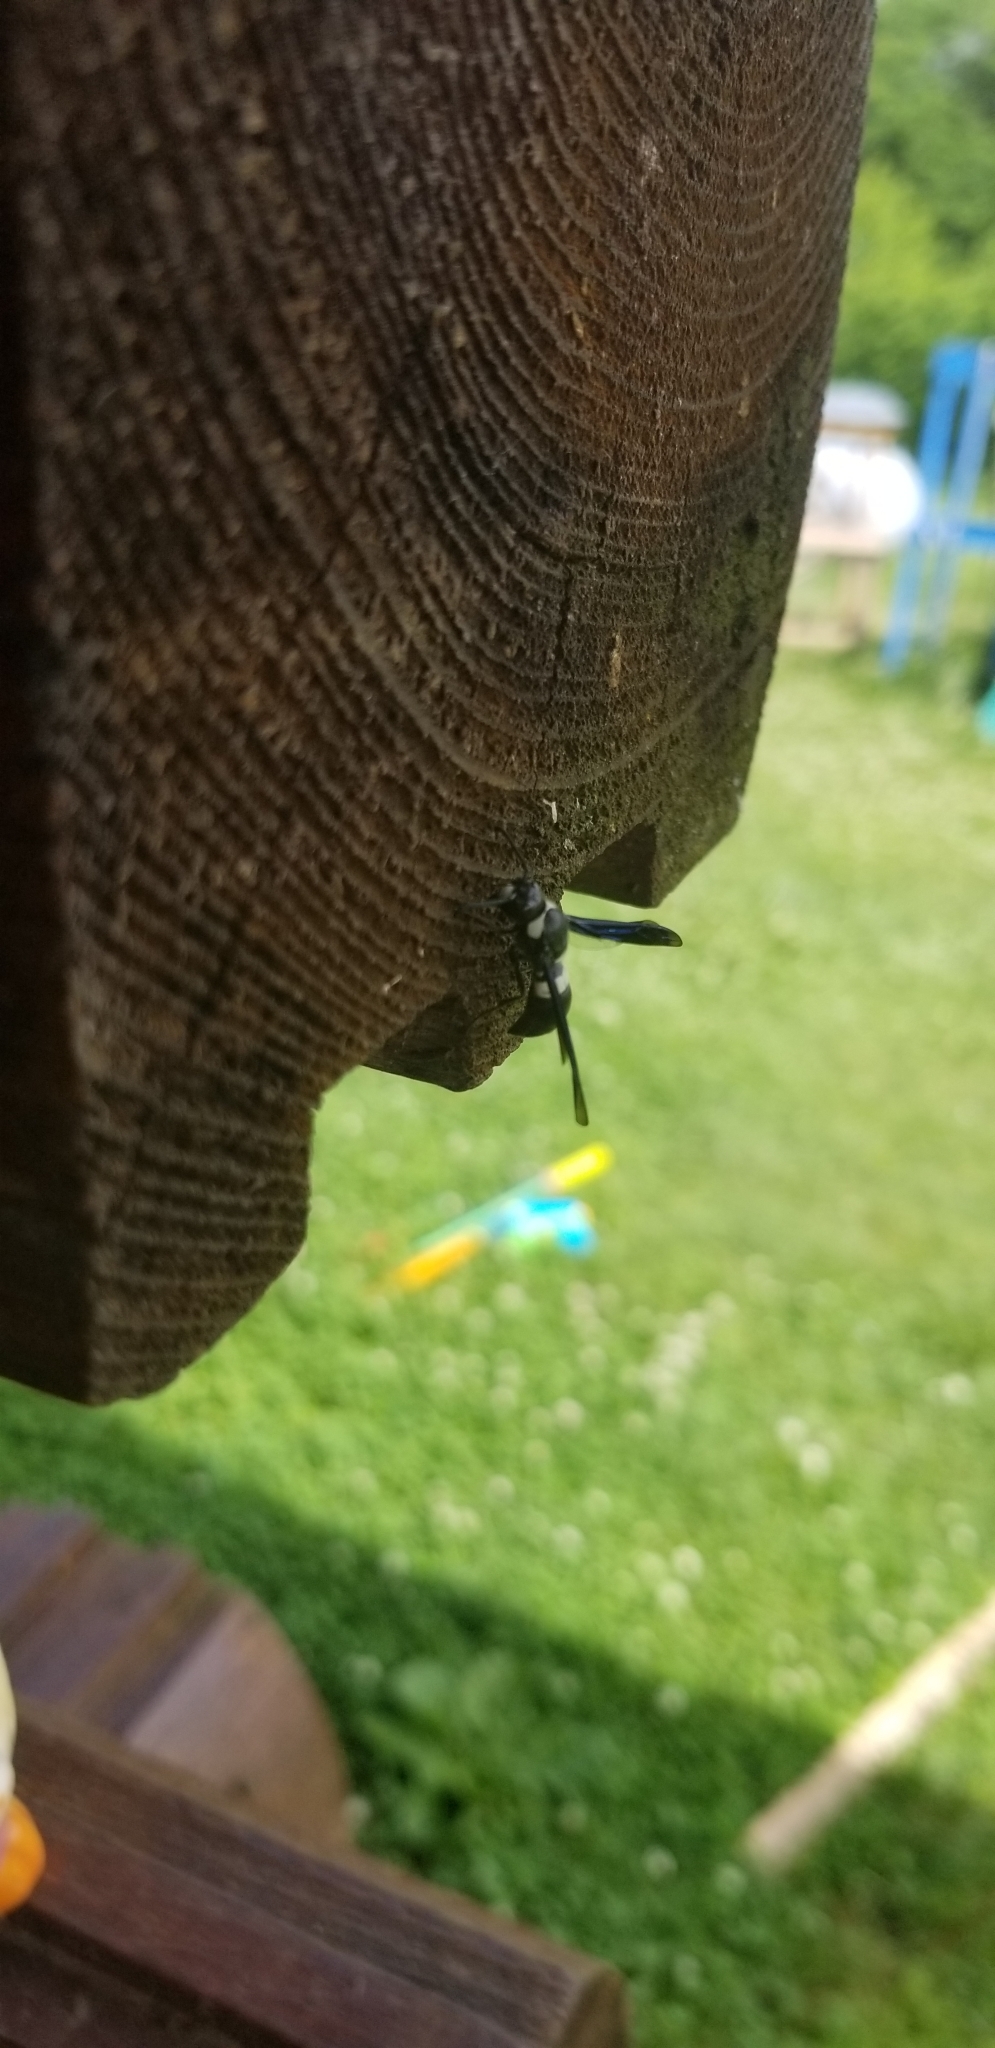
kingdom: Animalia
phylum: Arthropoda
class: Insecta
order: Hymenoptera
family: Eumenidae
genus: Monobia
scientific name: Monobia quadridens
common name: Four-toothed mason wasp
